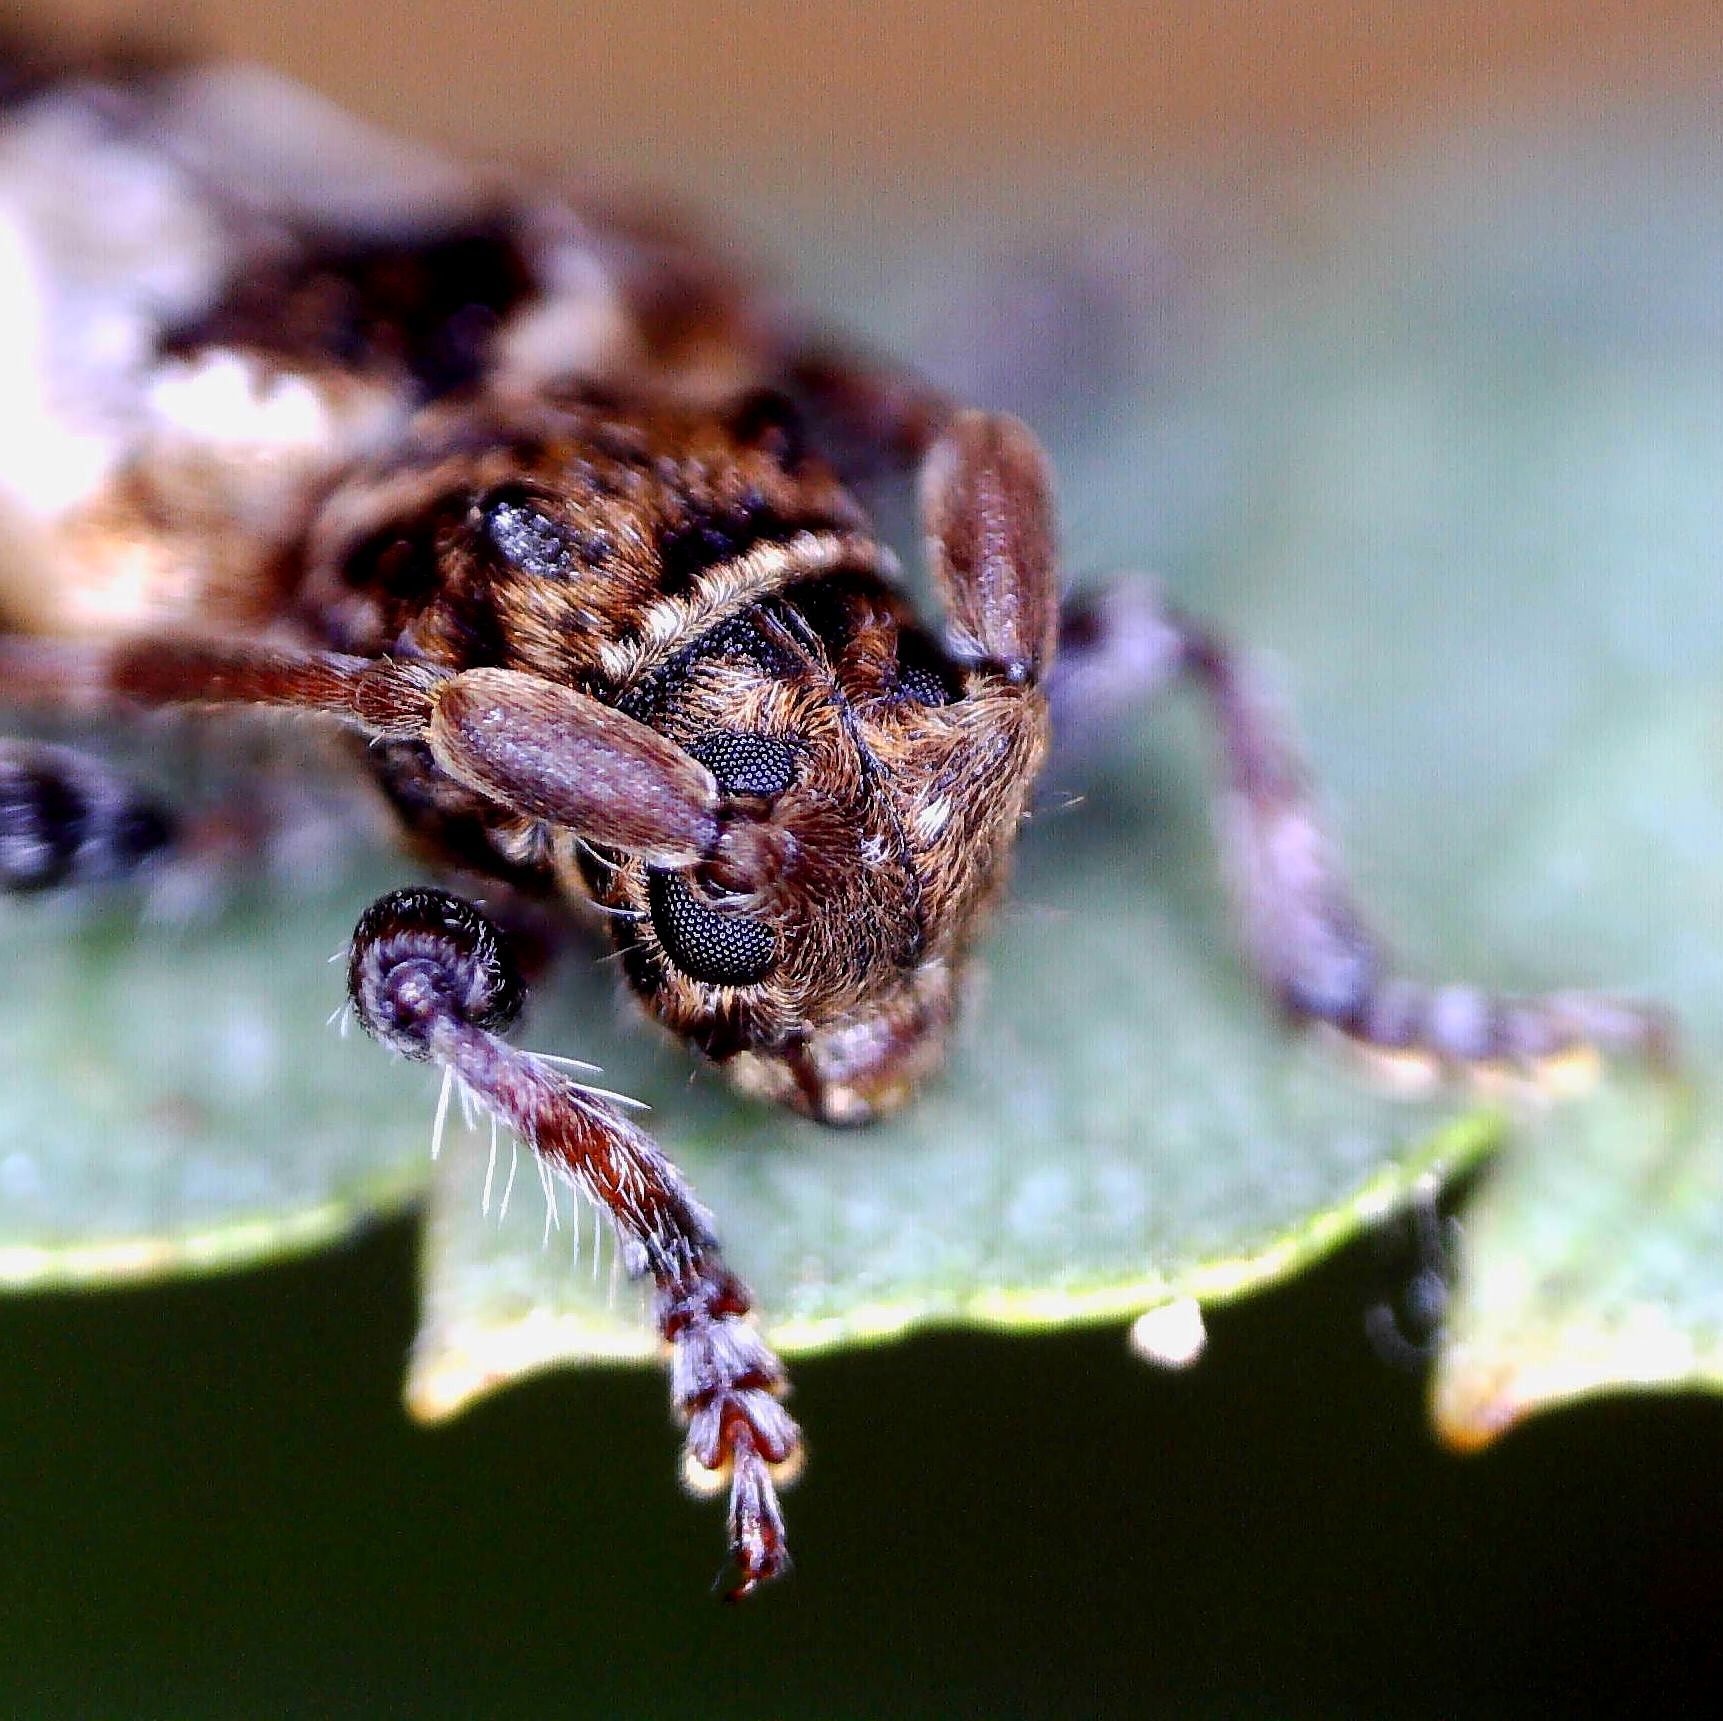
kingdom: Animalia
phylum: Arthropoda
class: Insecta
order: Coleoptera
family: Cerambycidae
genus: Pogonocherus
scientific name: Pogonocherus hispidus
